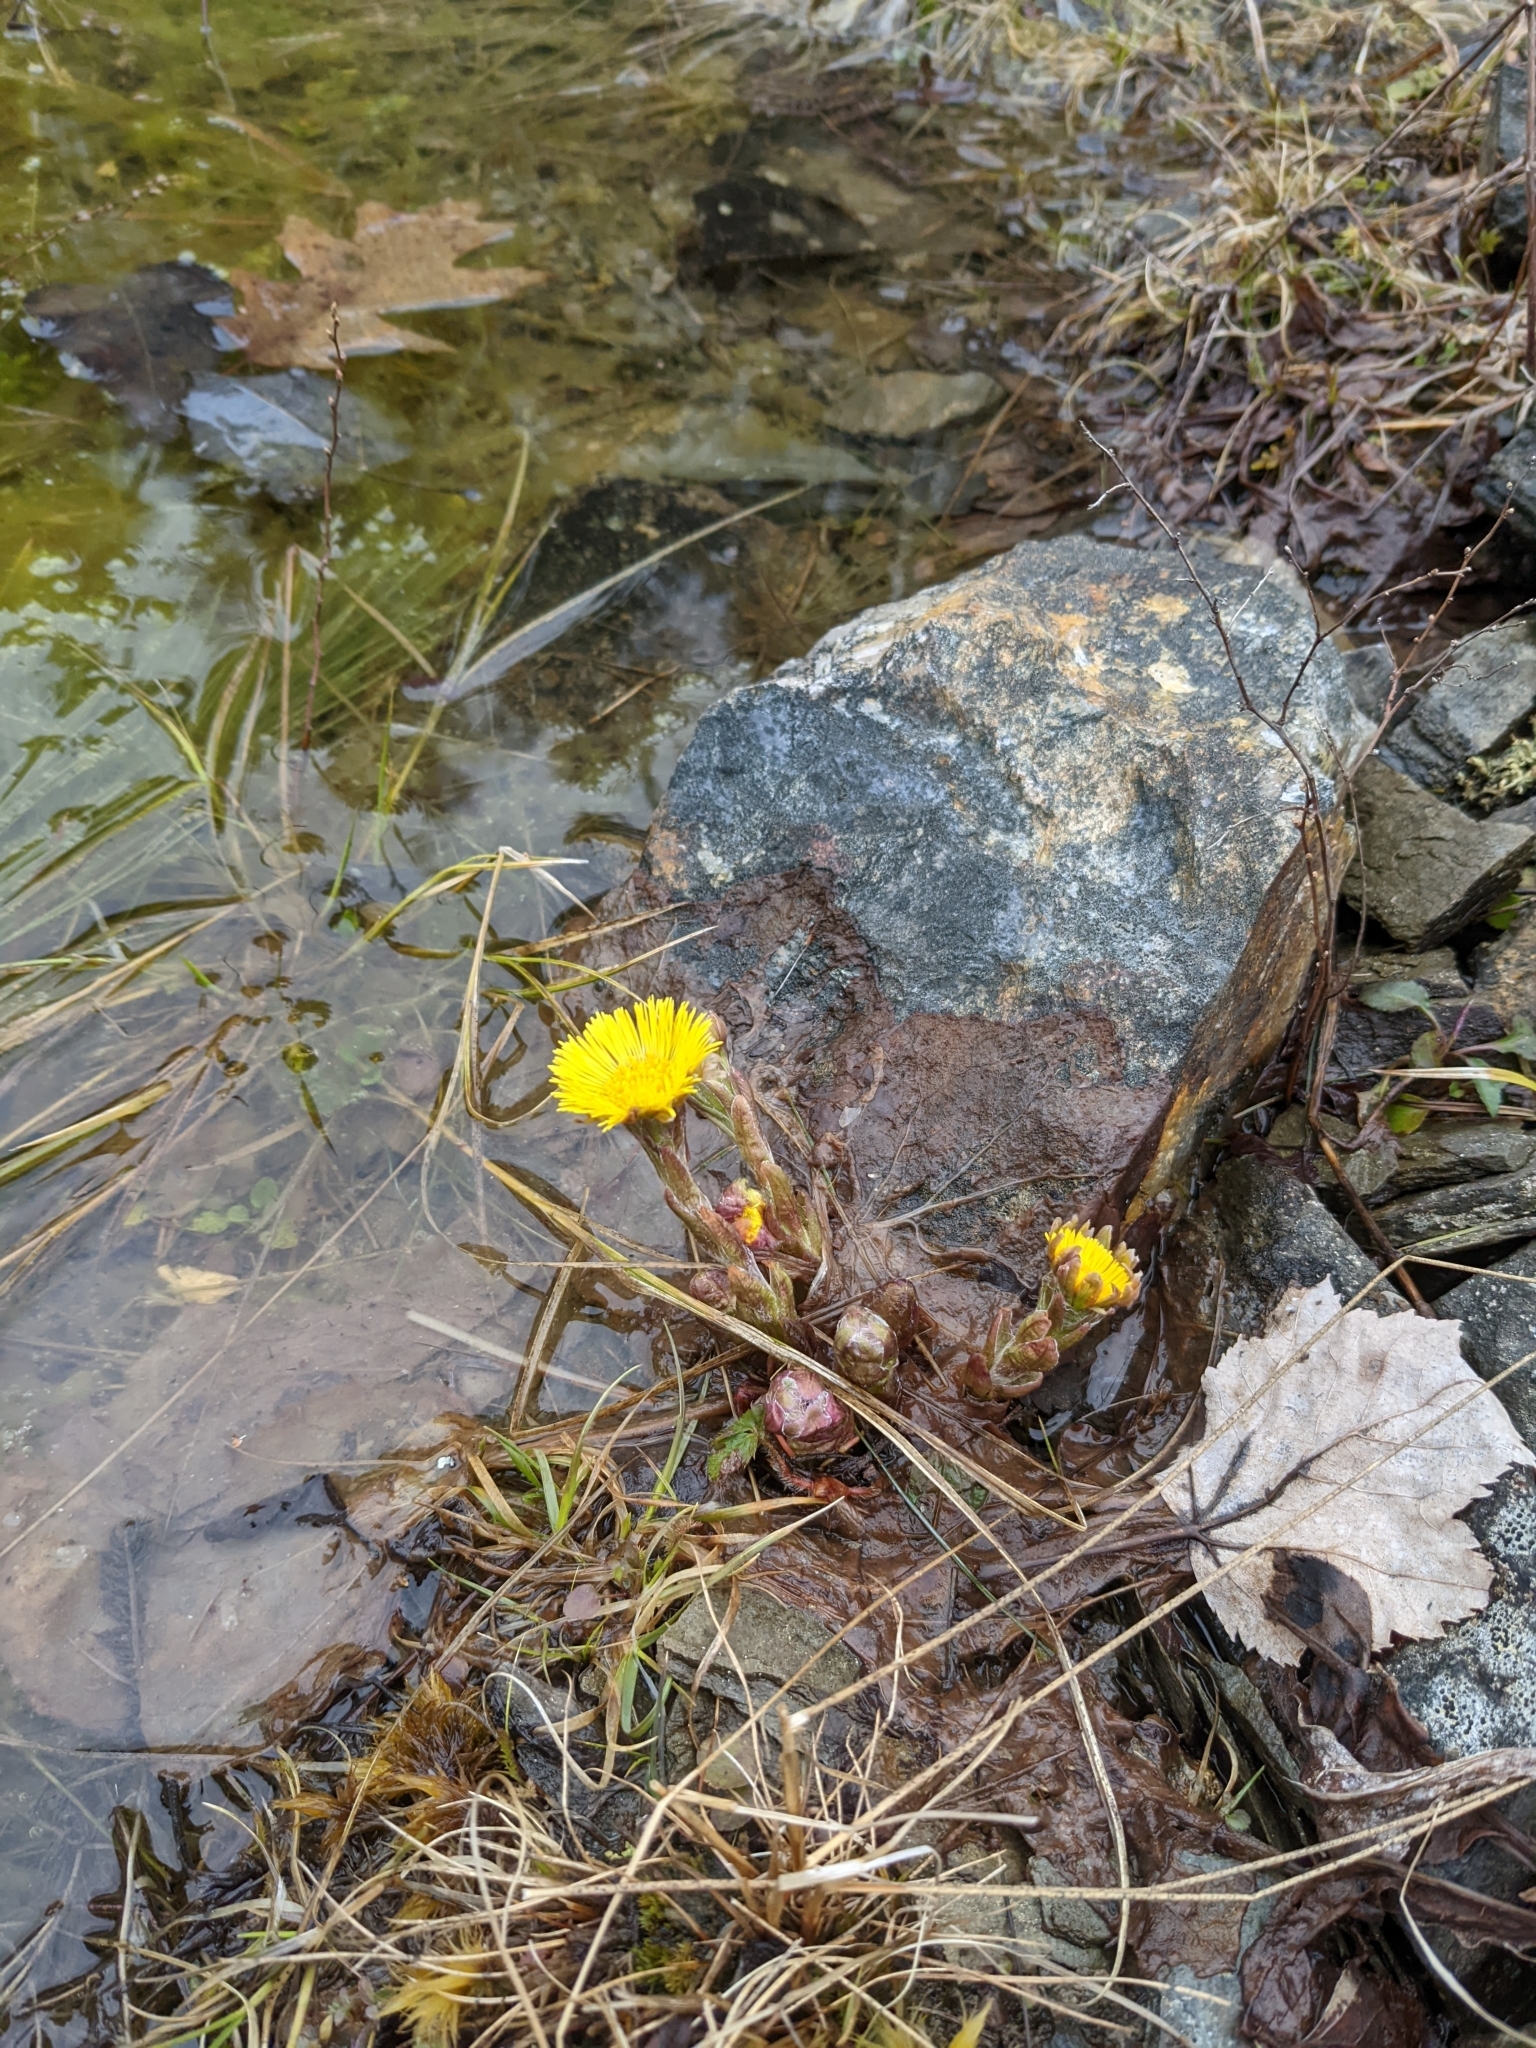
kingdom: Plantae
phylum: Tracheophyta
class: Magnoliopsida
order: Asterales
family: Asteraceae
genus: Tussilago
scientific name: Tussilago farfara
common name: Coltsfoot
